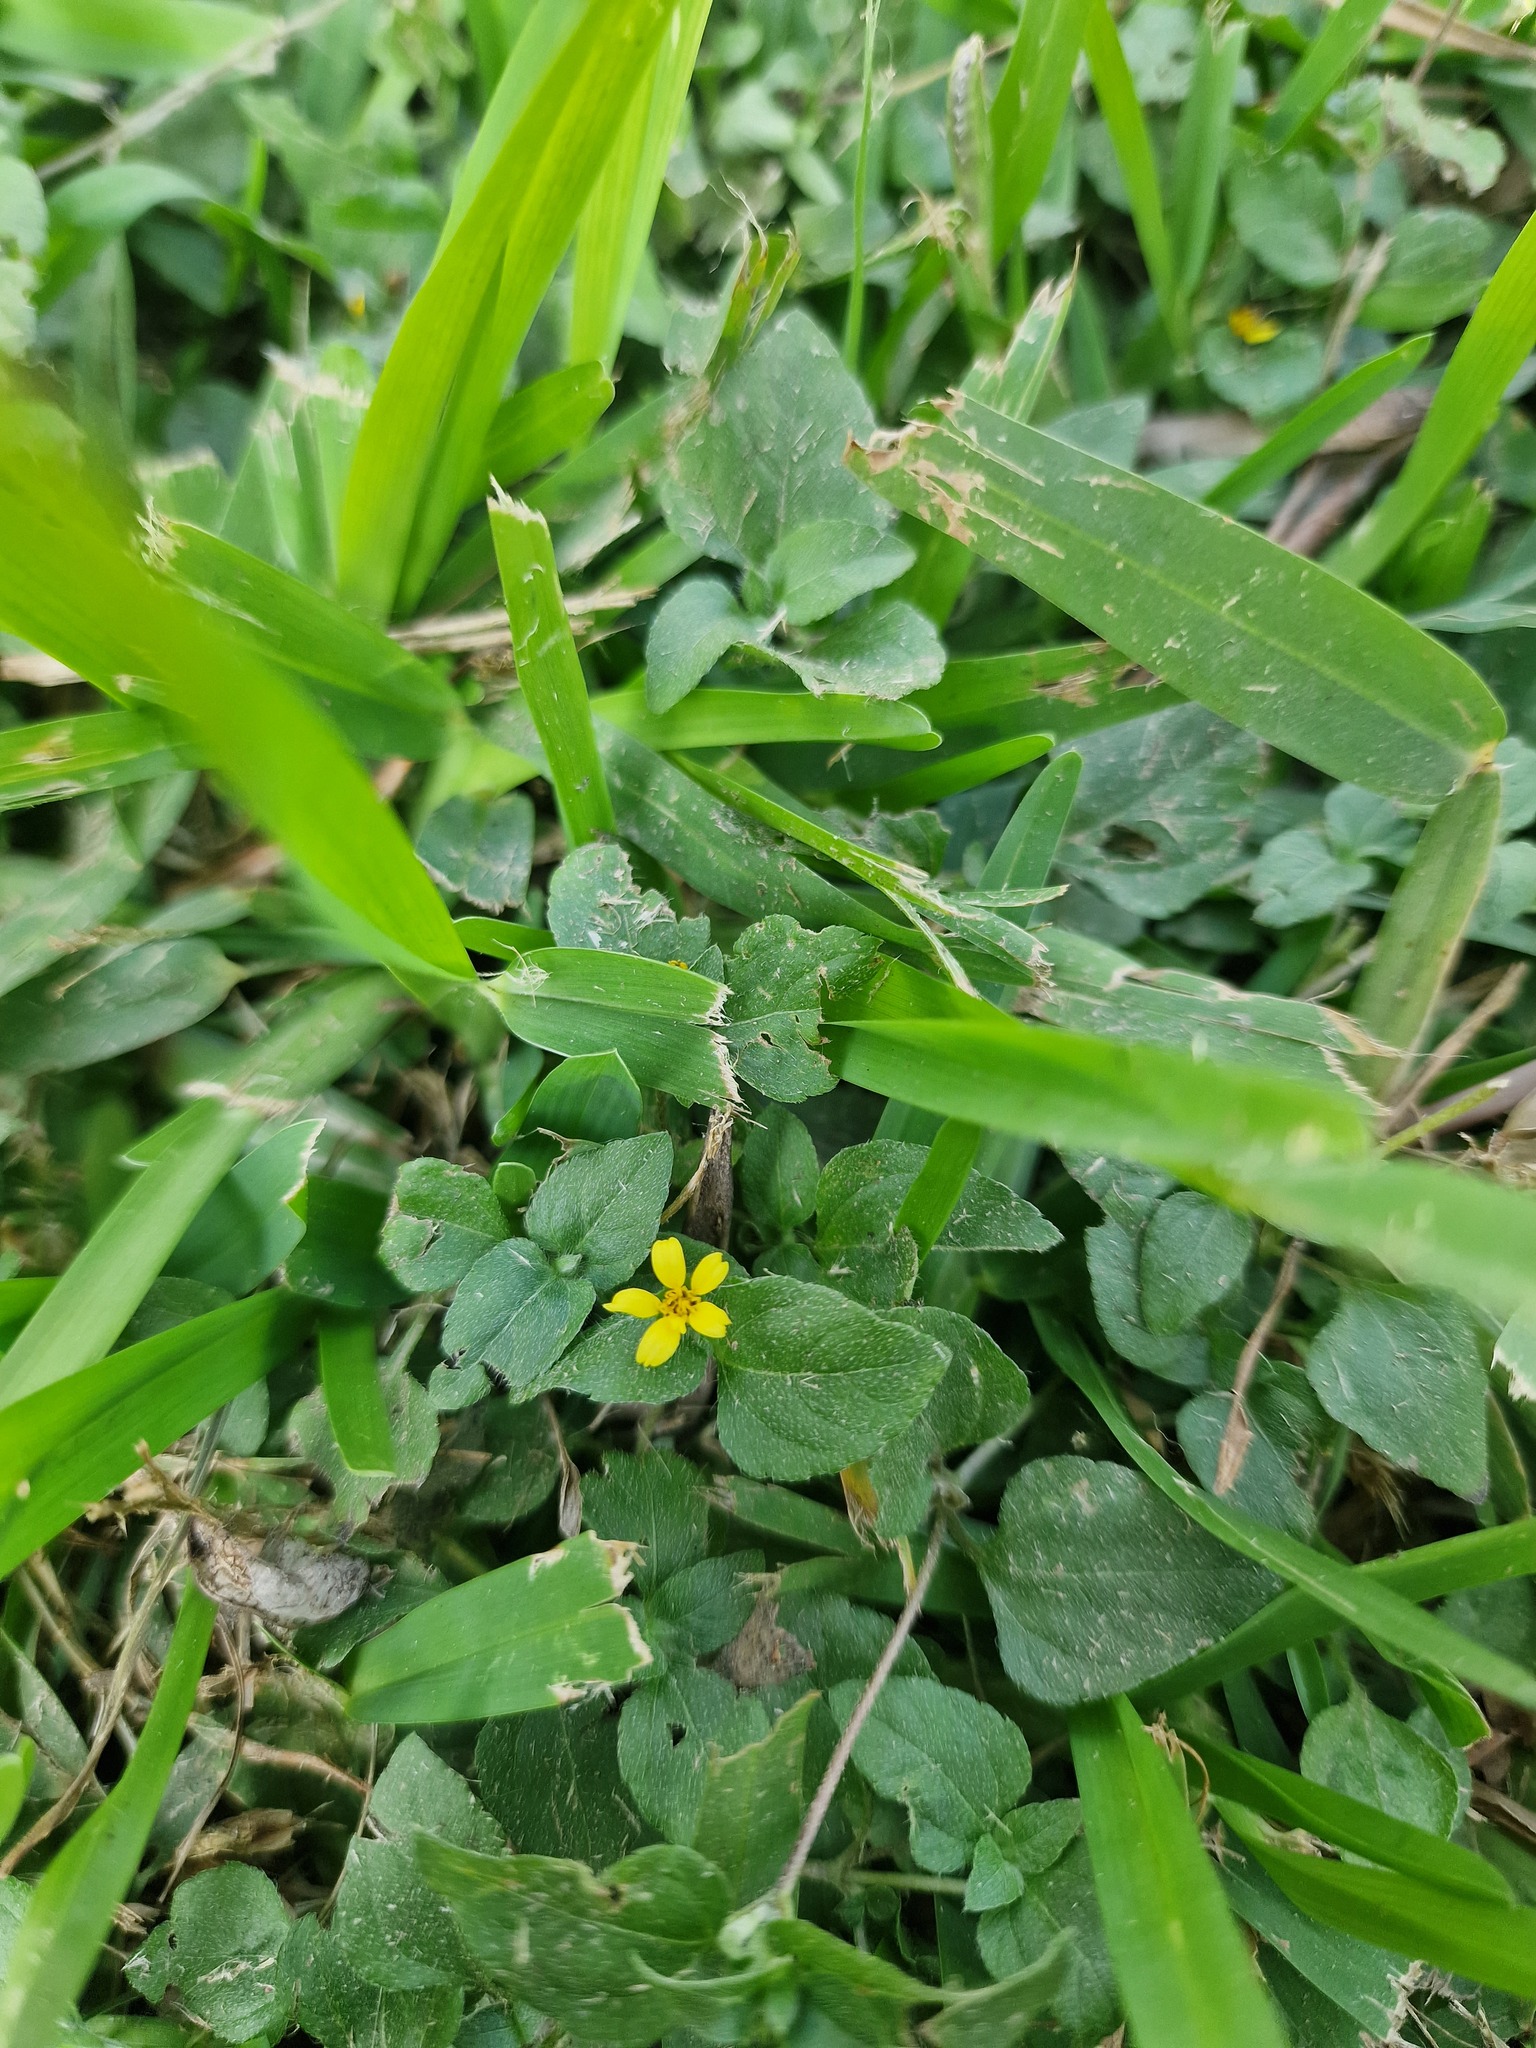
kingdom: Plantae
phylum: Tracheophyta
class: Magnoliopsida
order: Asterales
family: Asteraceae
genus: Calyptocarpus
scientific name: Calyptocarpus vialis
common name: Straggler daisy
